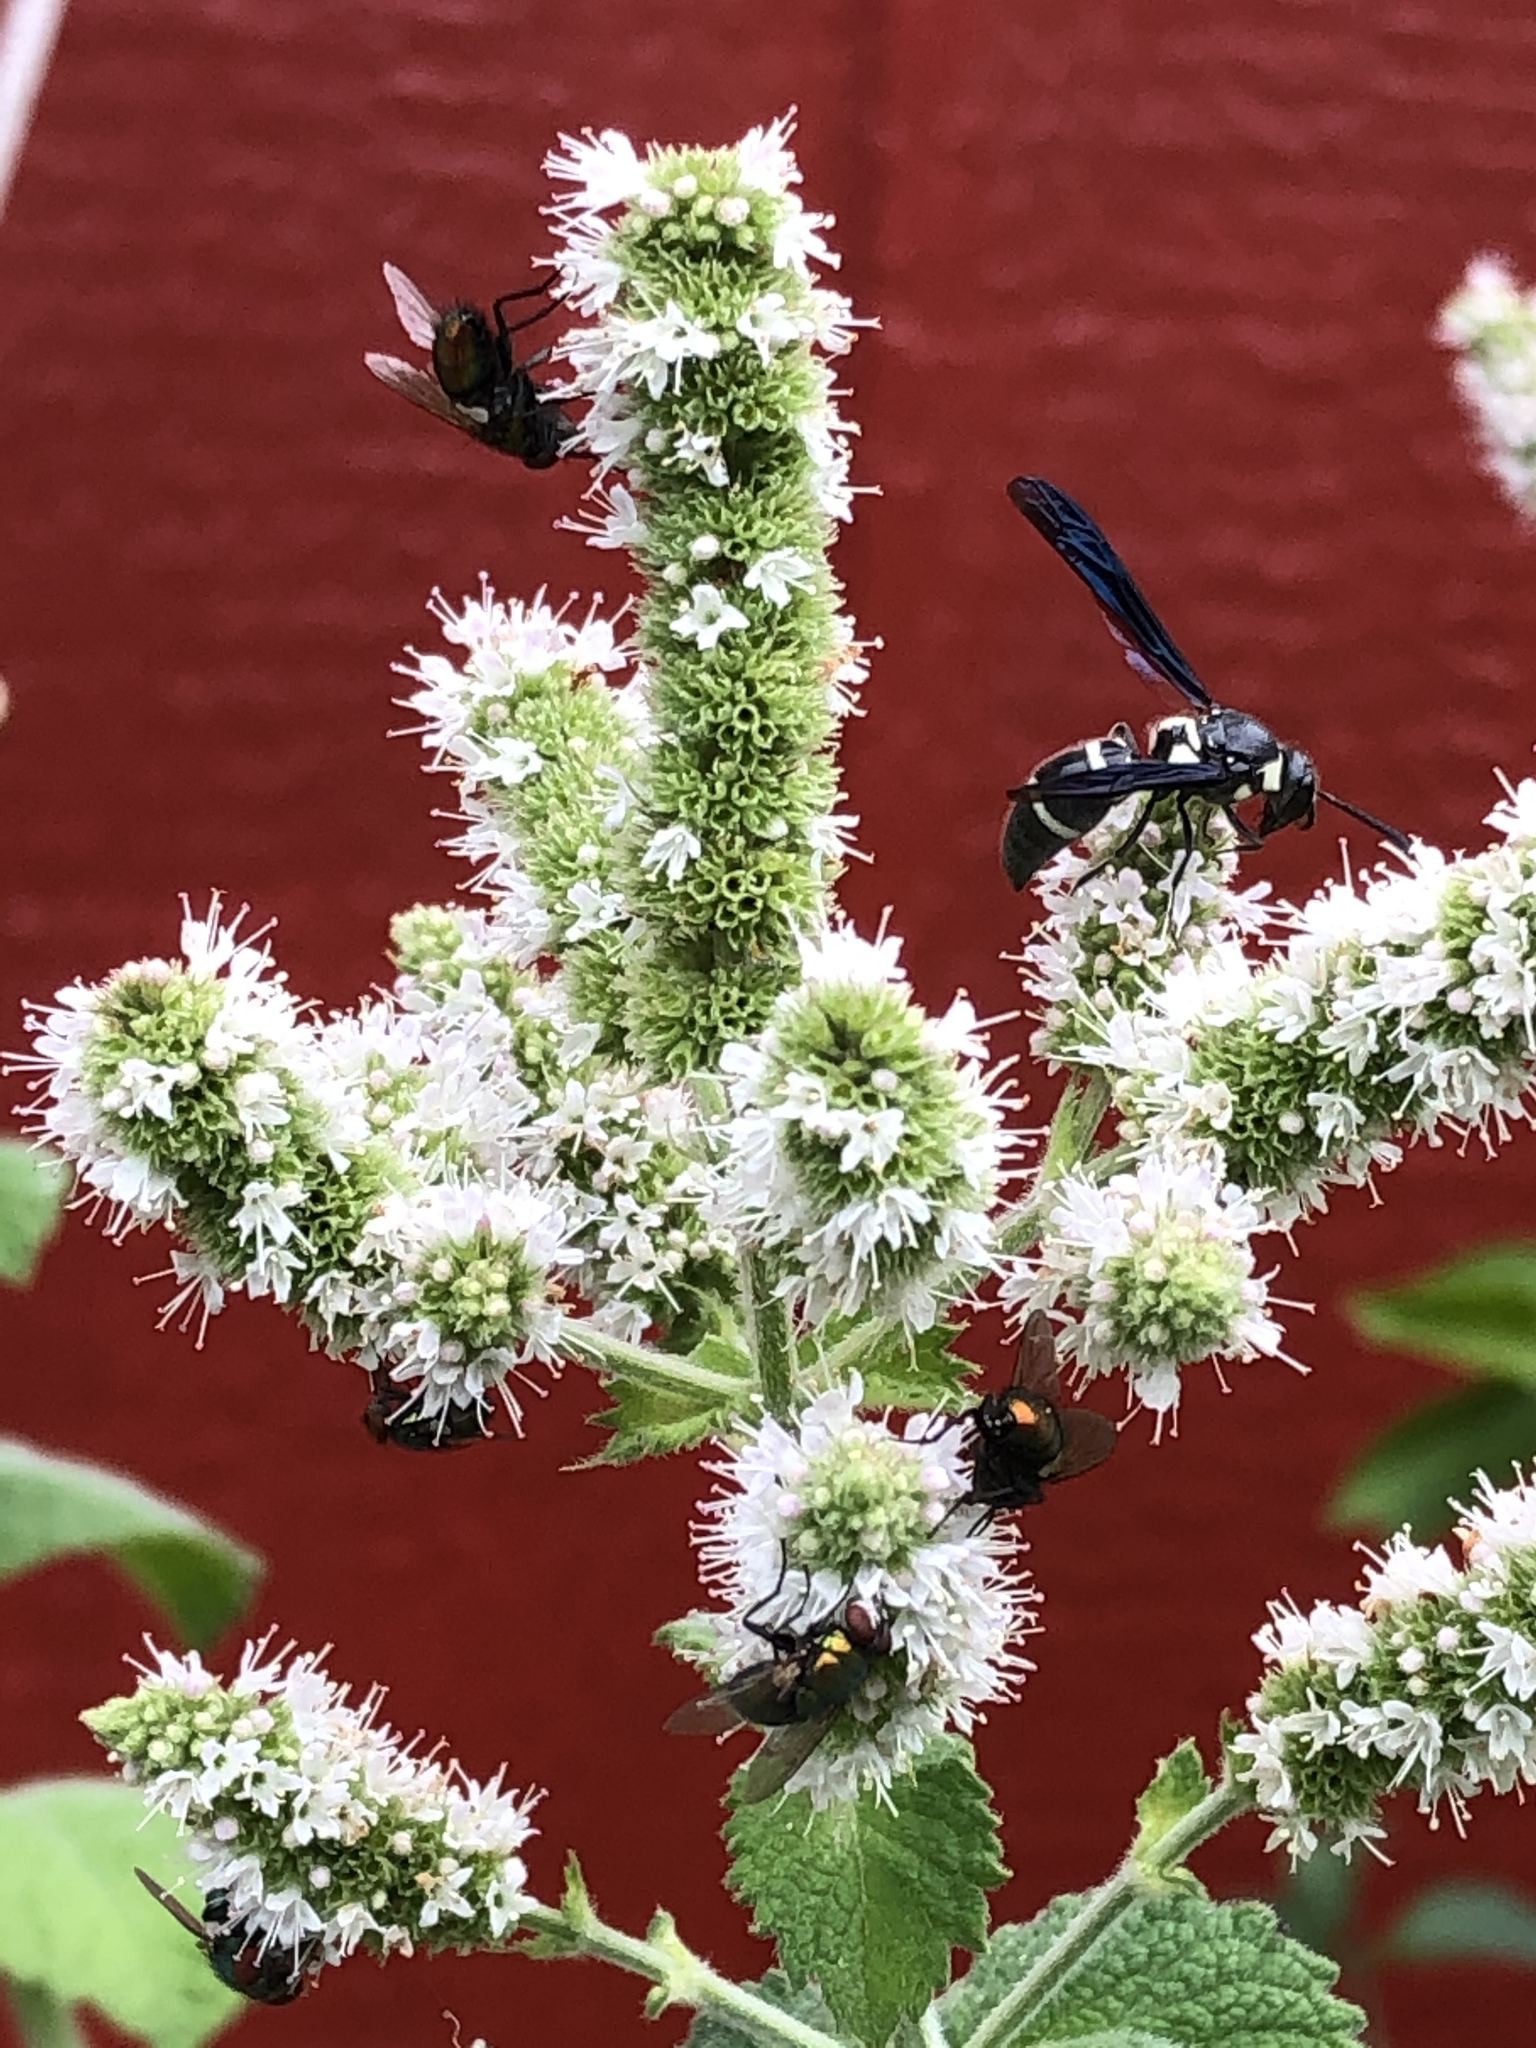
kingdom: Animalia
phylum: Arthropoda
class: Insecta
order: Hymenoptera
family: Eumenidae
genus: Pseudodynerus
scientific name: Pseudodynerus quadrisectus
